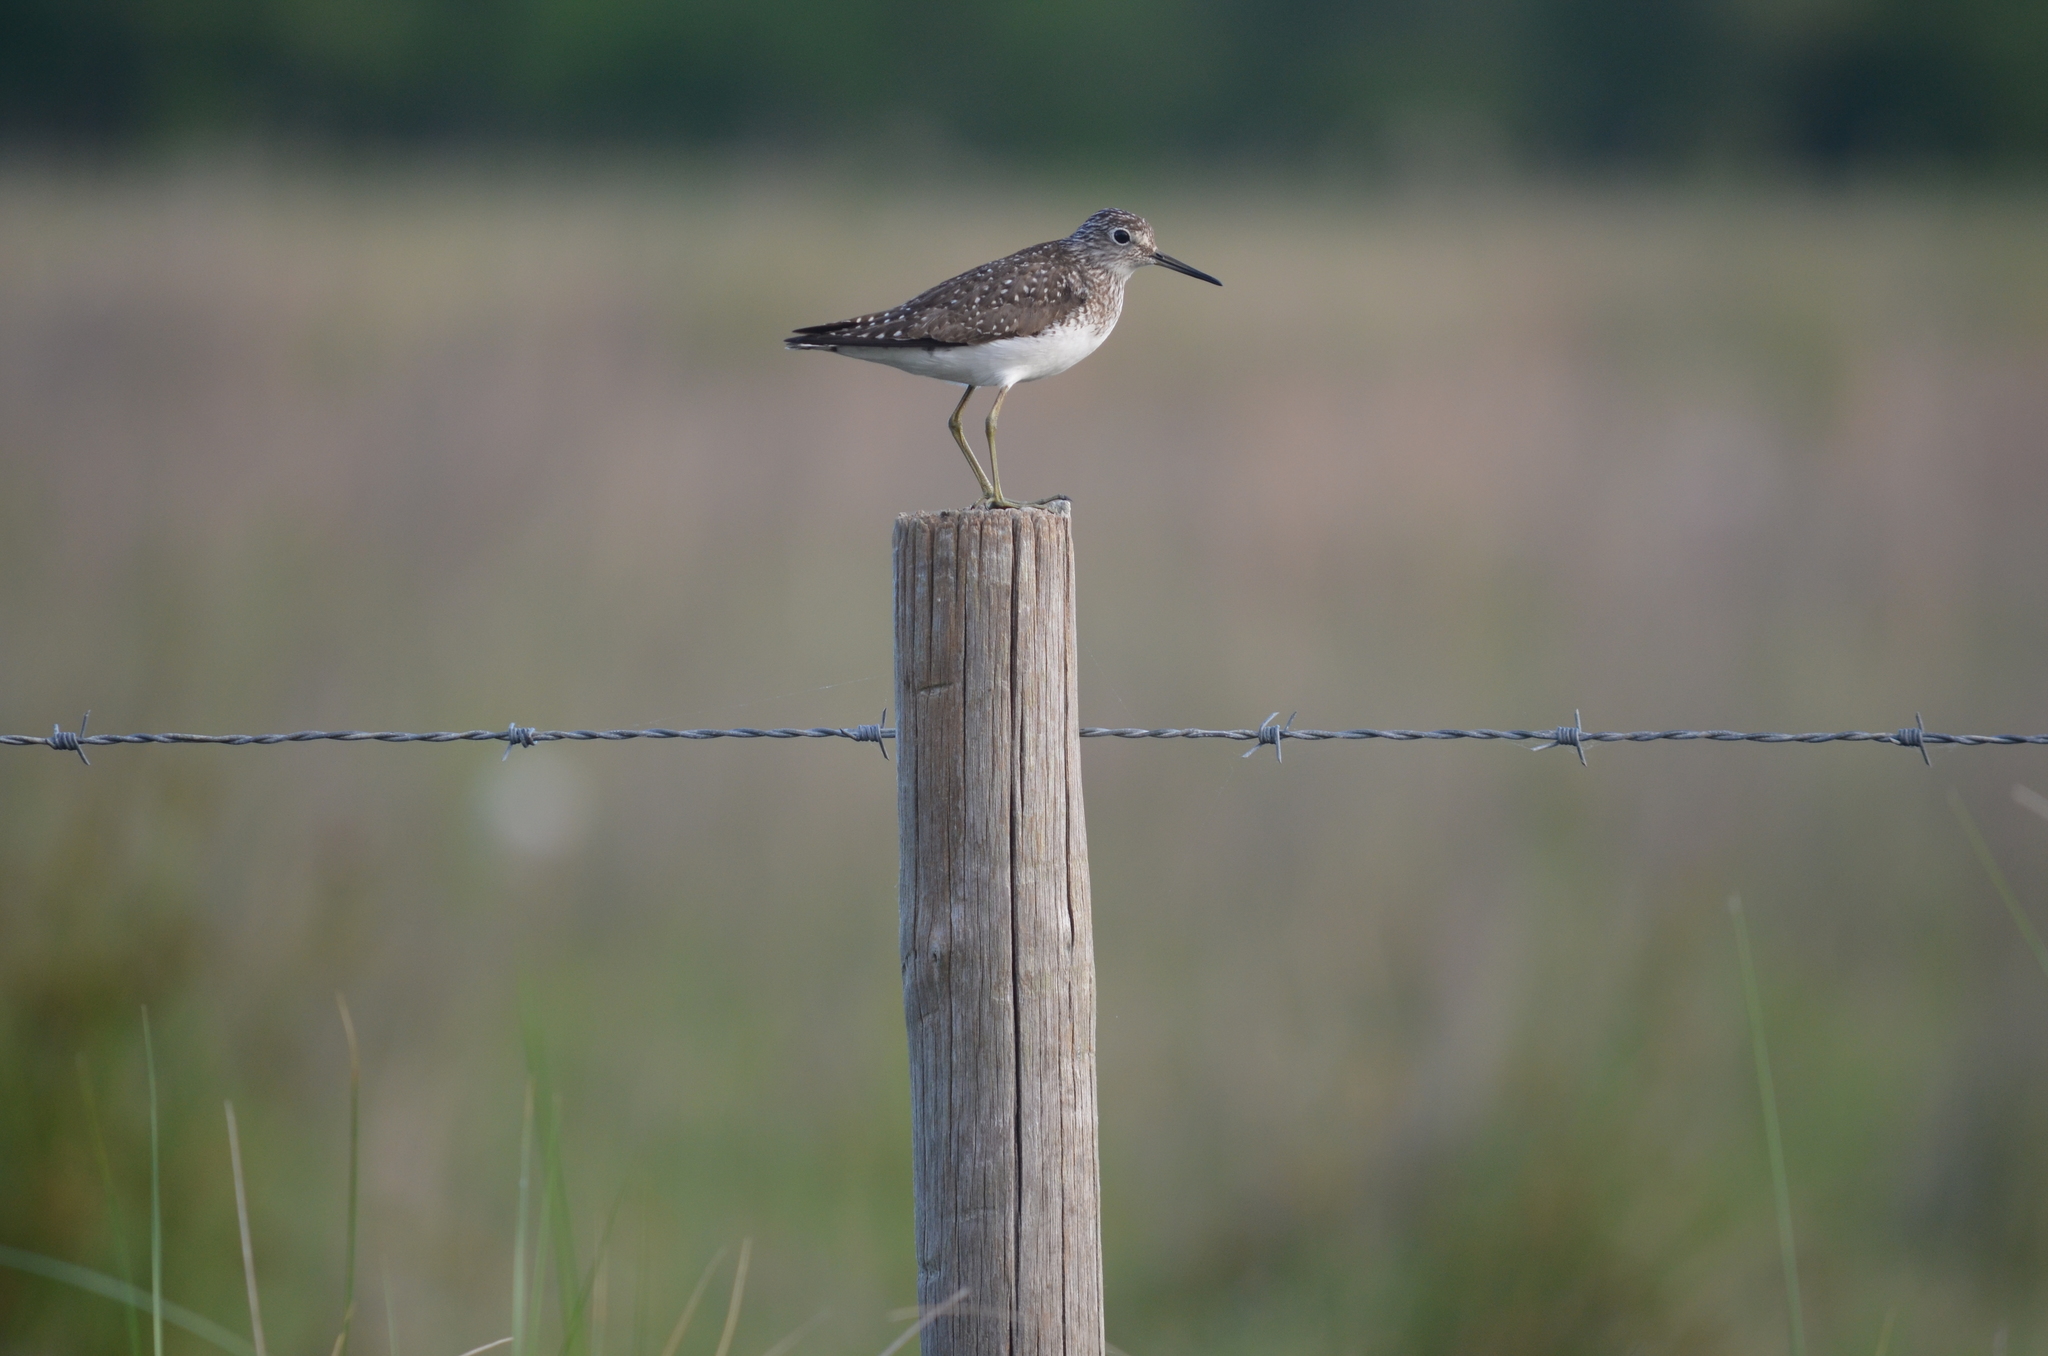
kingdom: Animalia
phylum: Chordata
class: Aves
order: Charadriiformes
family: Scolopacidae
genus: Tringa
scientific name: Tringa solitaria
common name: Solitary sandpiper
